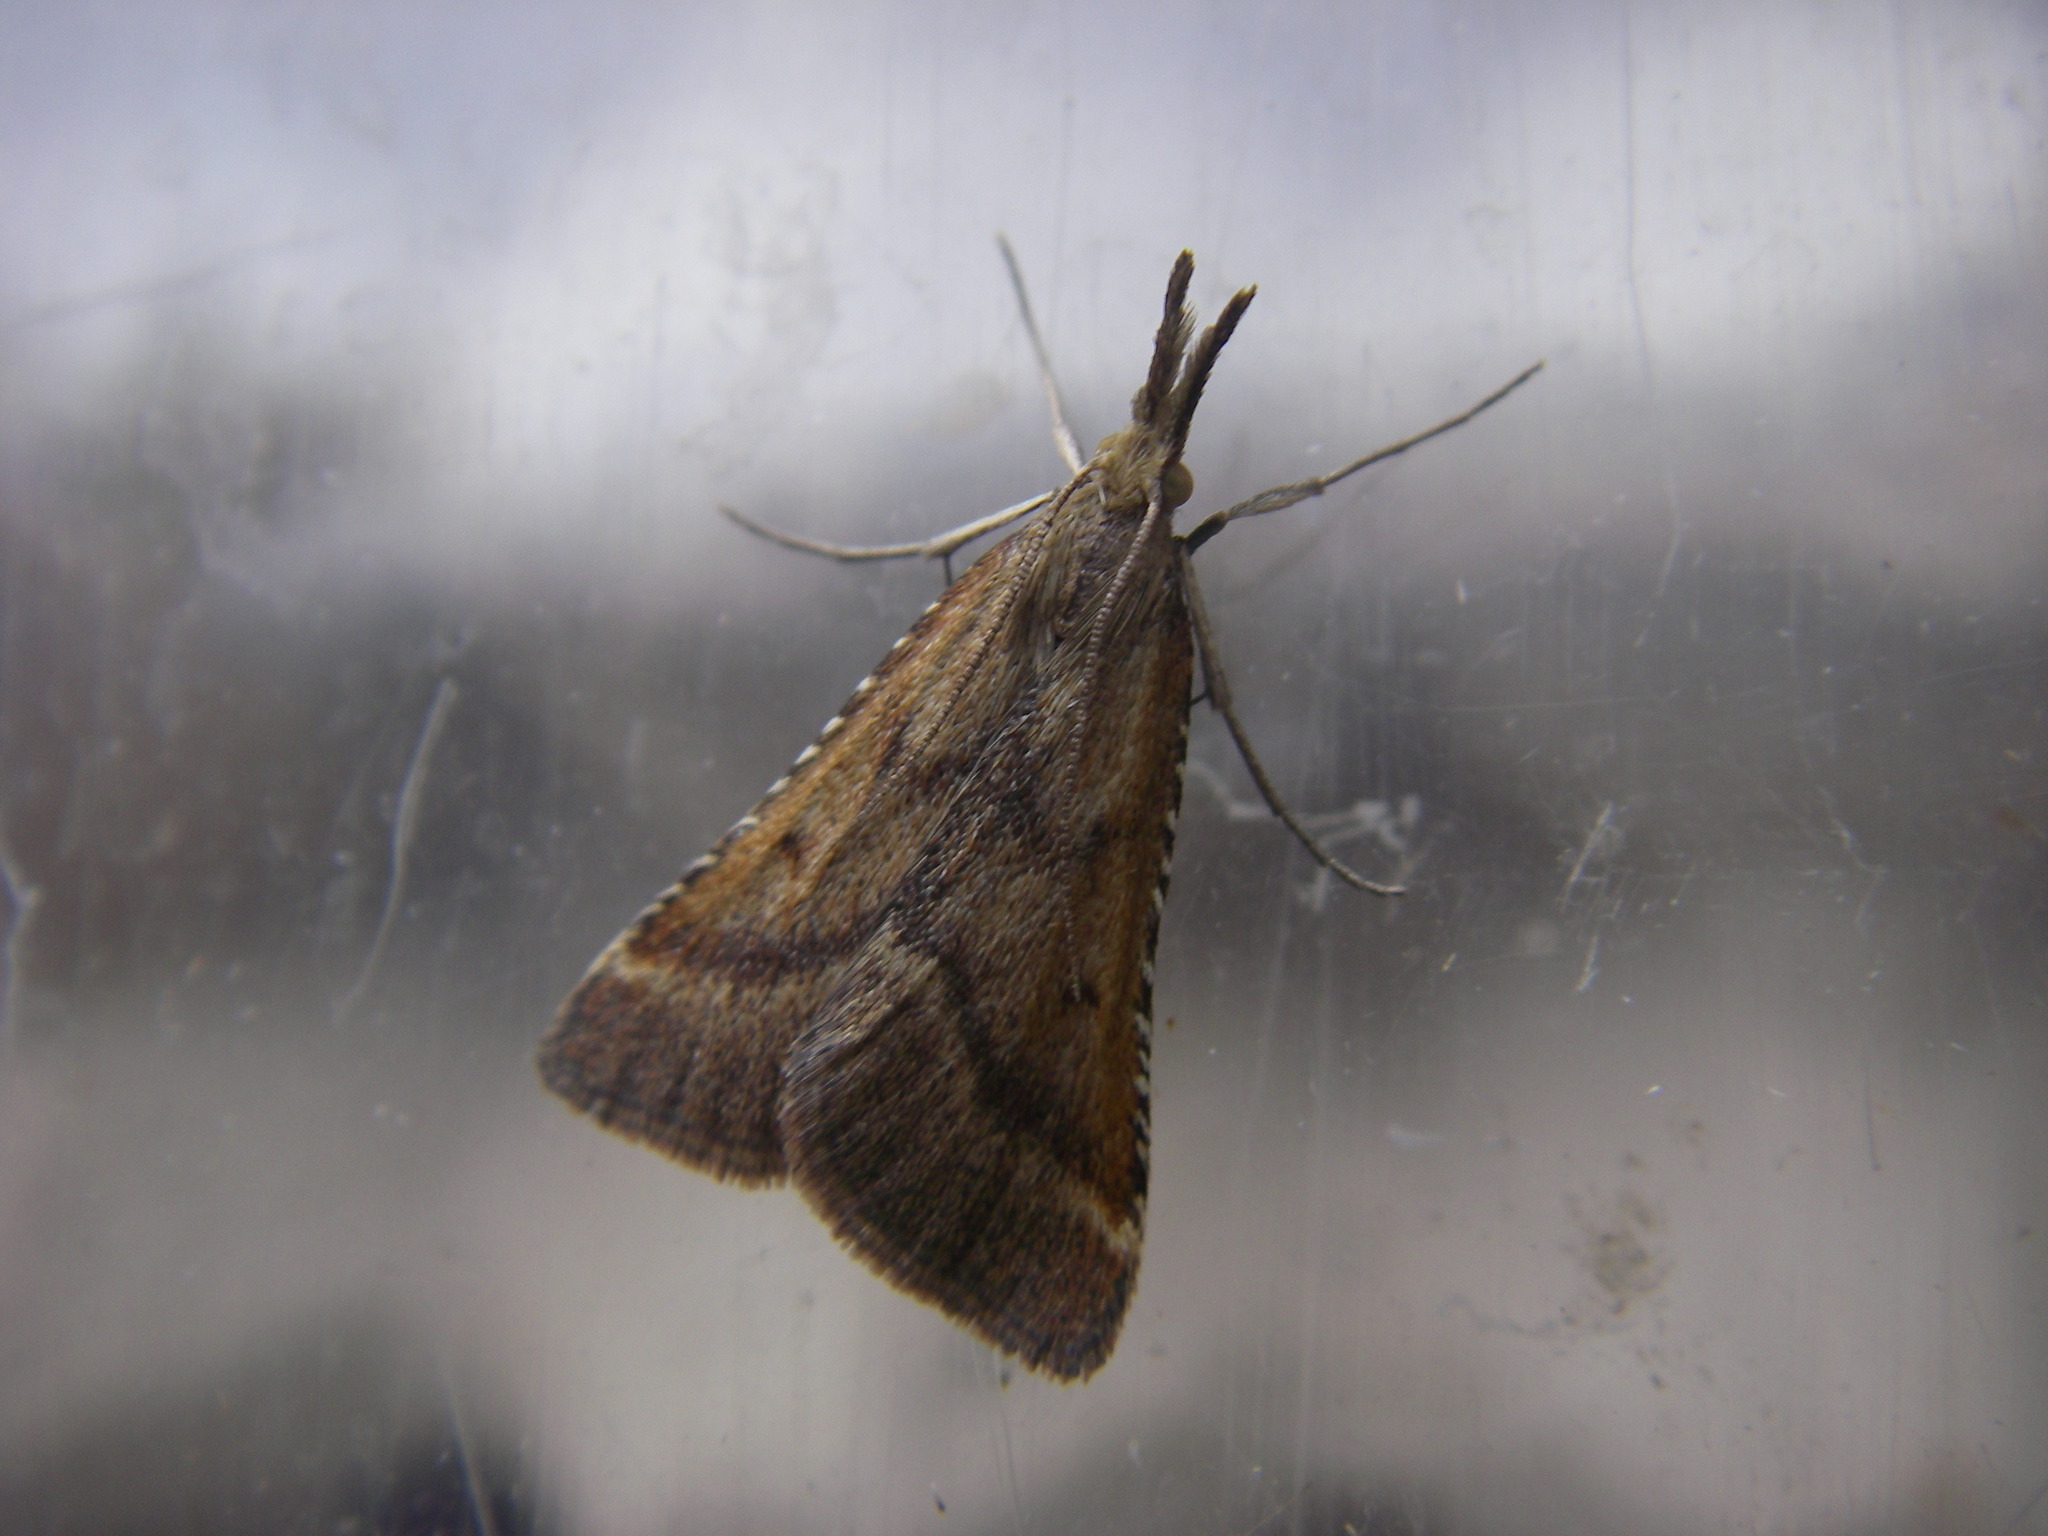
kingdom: Animalia
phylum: Arthropoda
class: Insecta
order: Lepidoptera
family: Pyralidae
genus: Synaphe
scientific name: Synaphe punctalis
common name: Long-legged tabby
